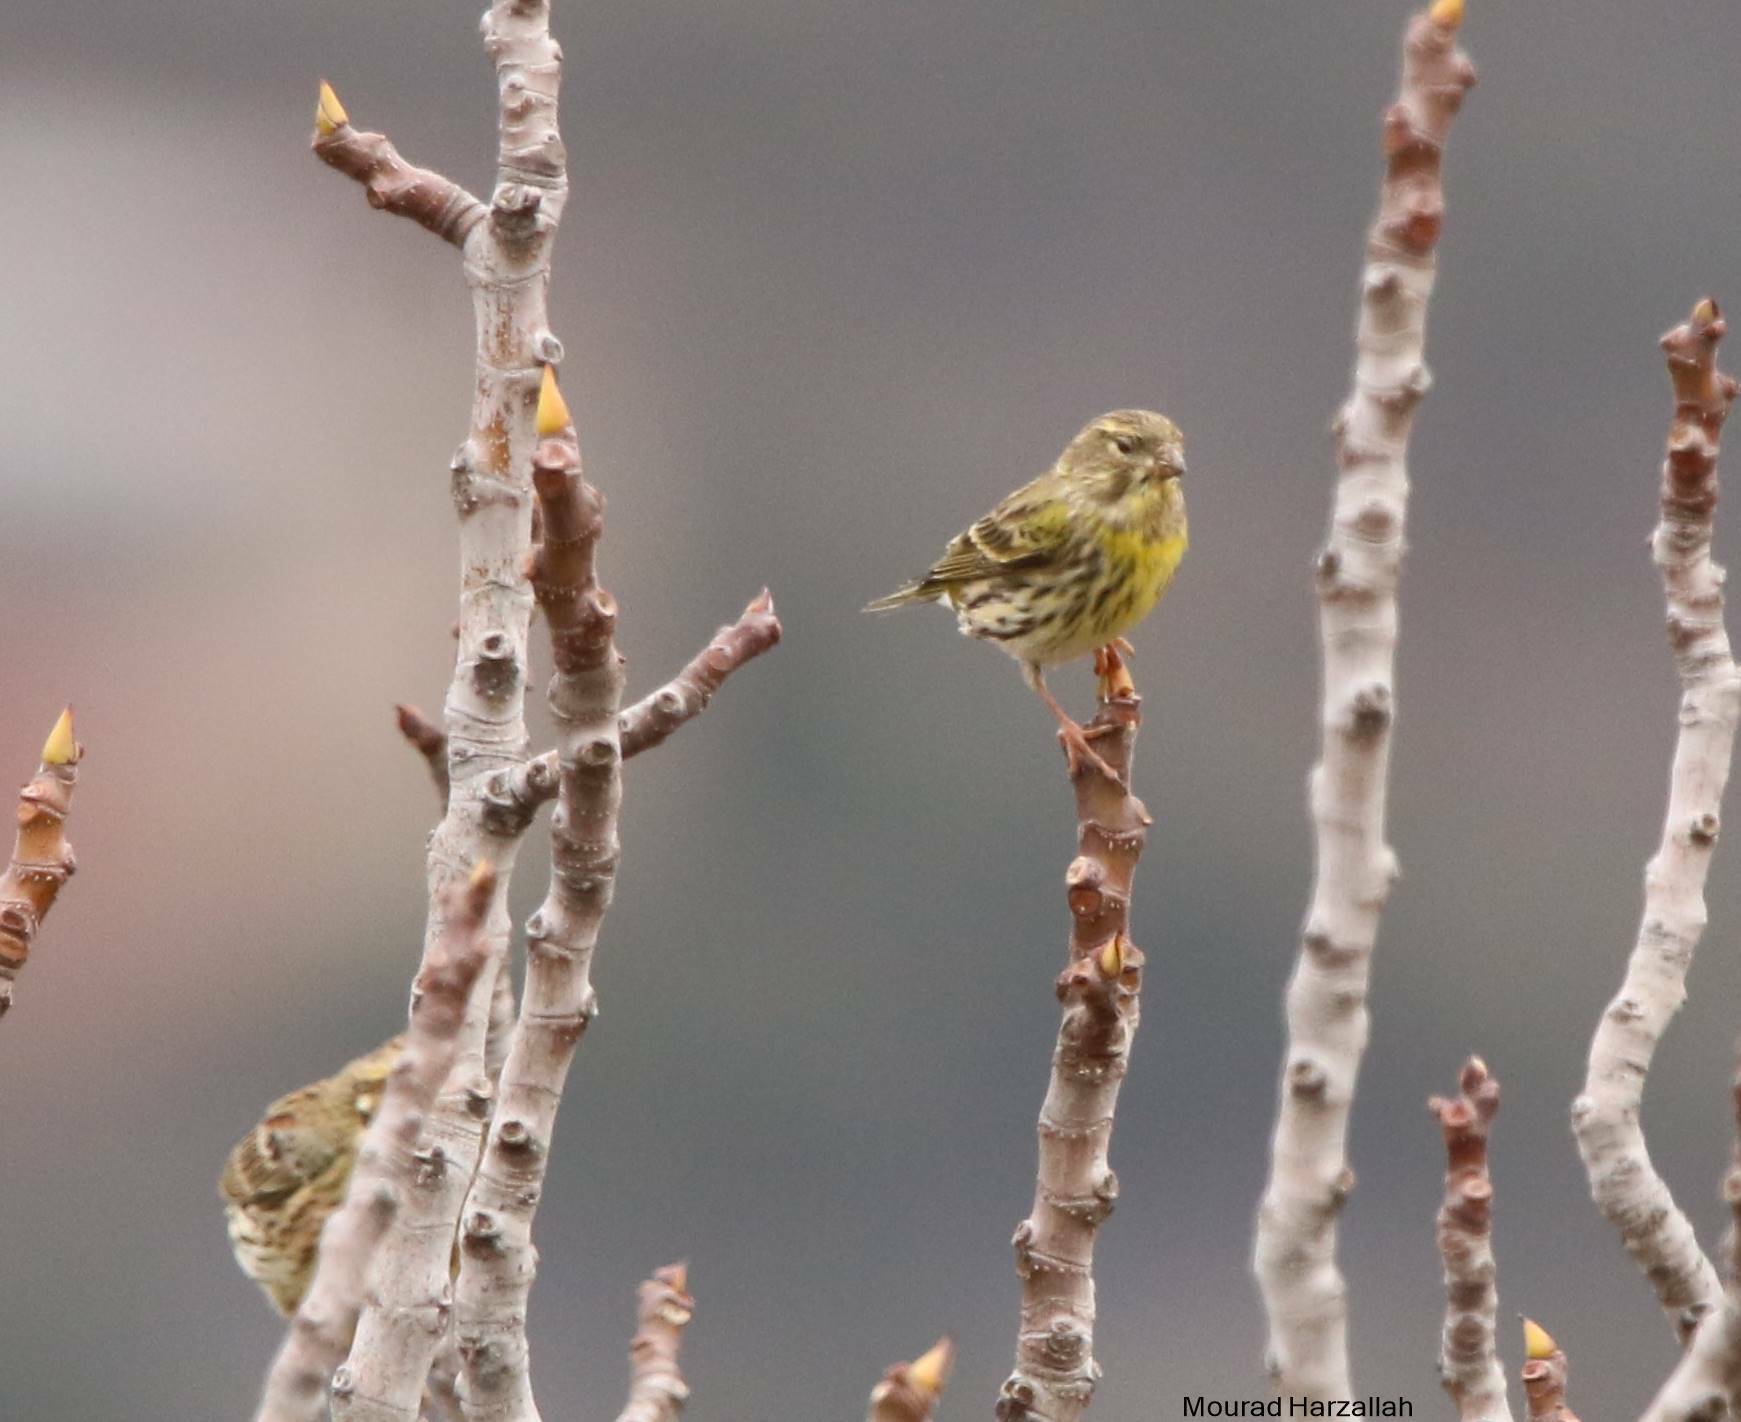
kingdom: Animalia
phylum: Chordata
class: Aves
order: Passeriformes
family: Fringillidae
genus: Serinus
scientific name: Serinus serinus
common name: European serin
